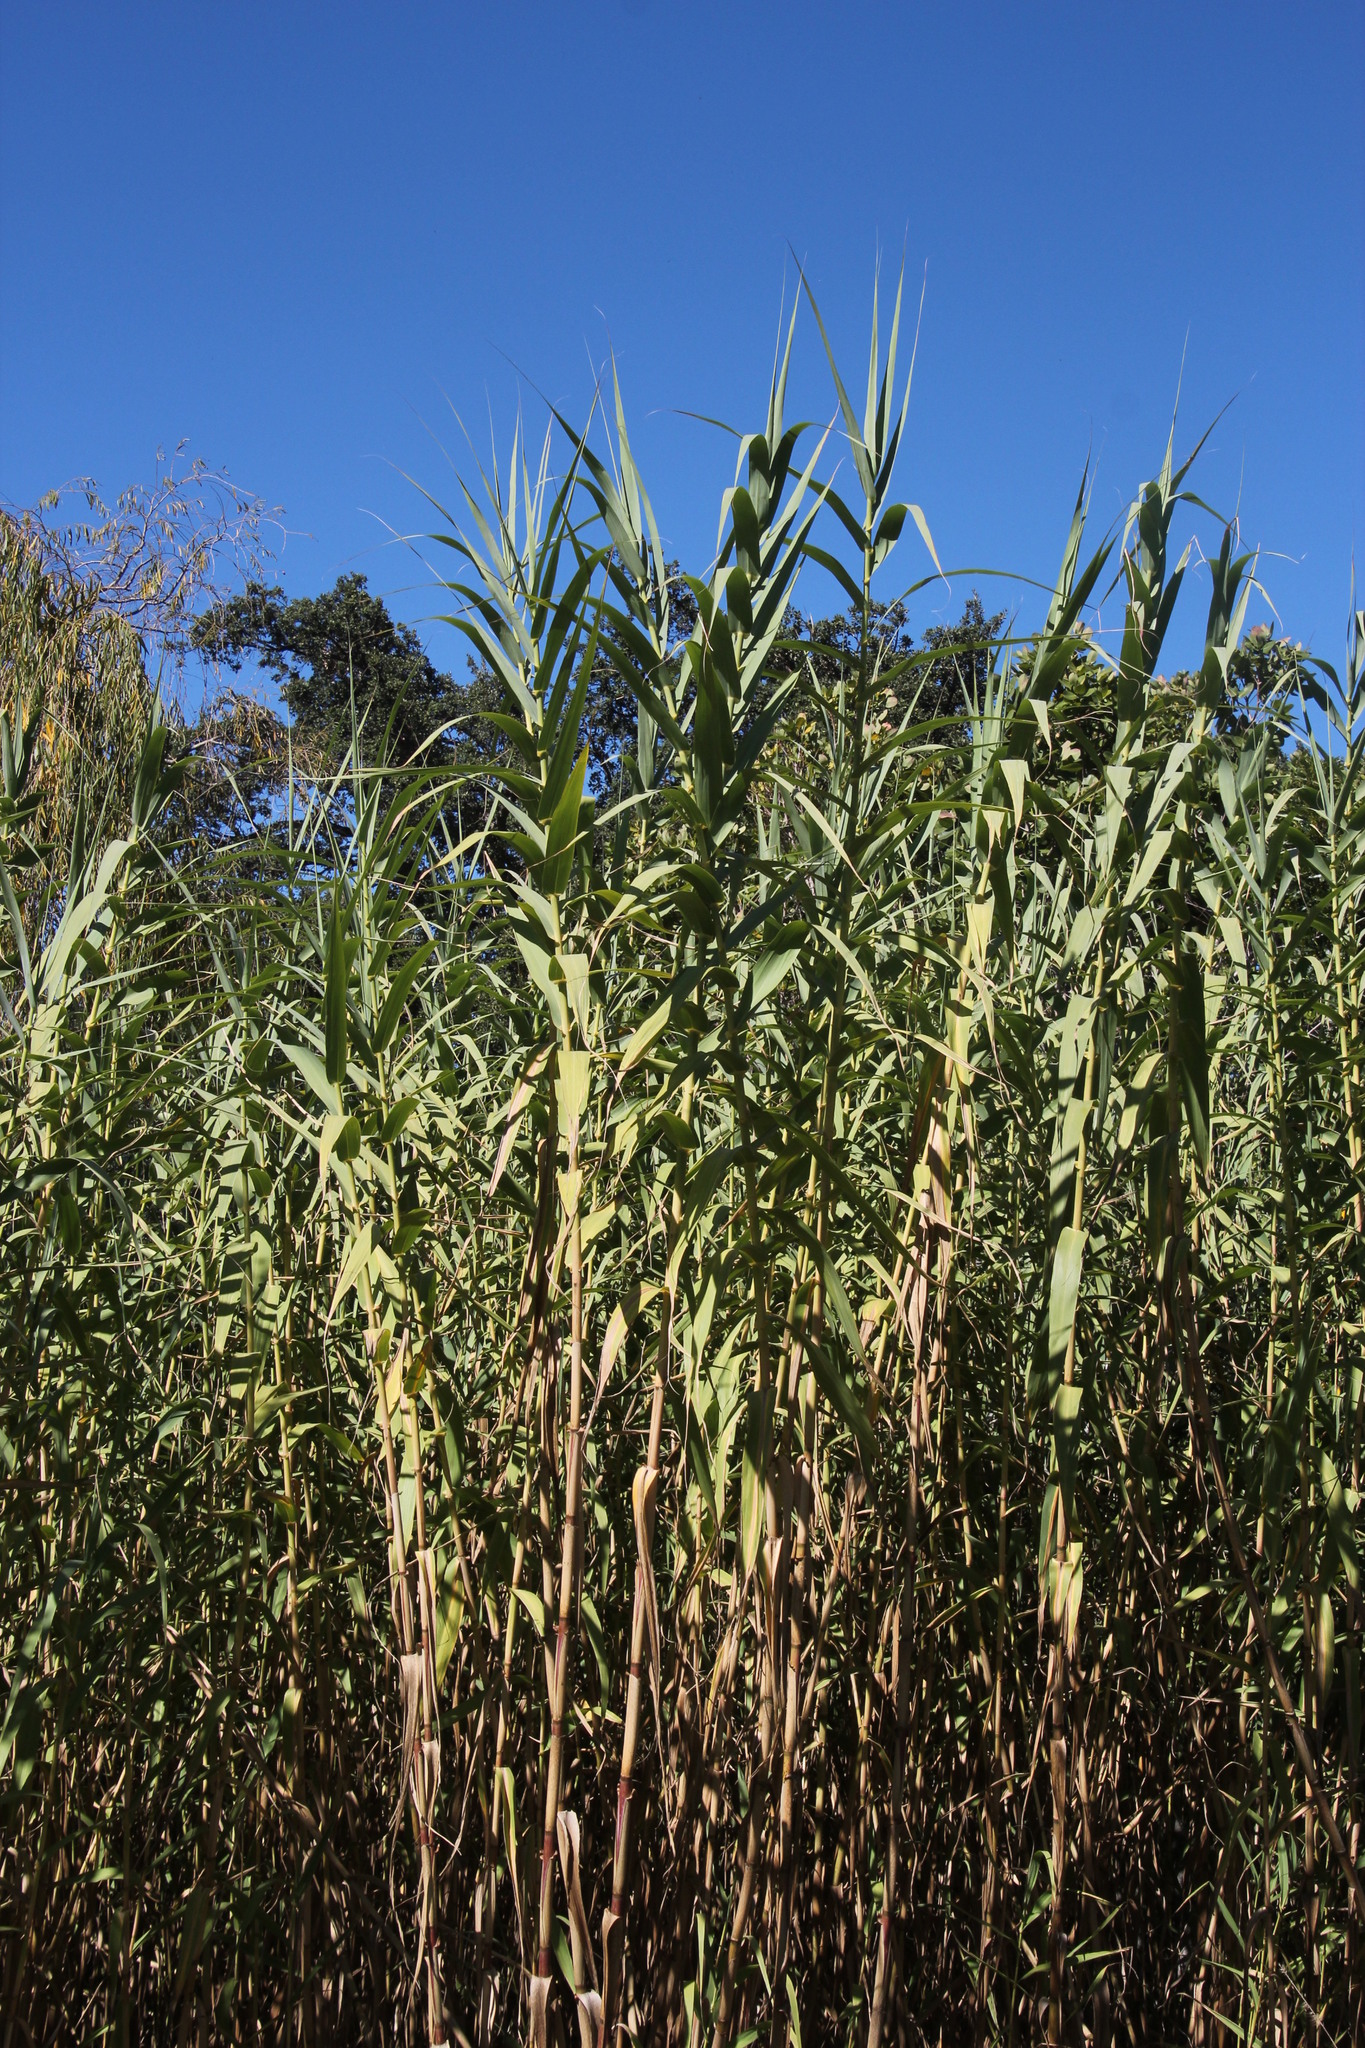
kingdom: Plantae
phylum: Tracheophyta
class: Liliopsida
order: Poales
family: Poaceae
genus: Arundo
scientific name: Arundo donax
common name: Giant reed
